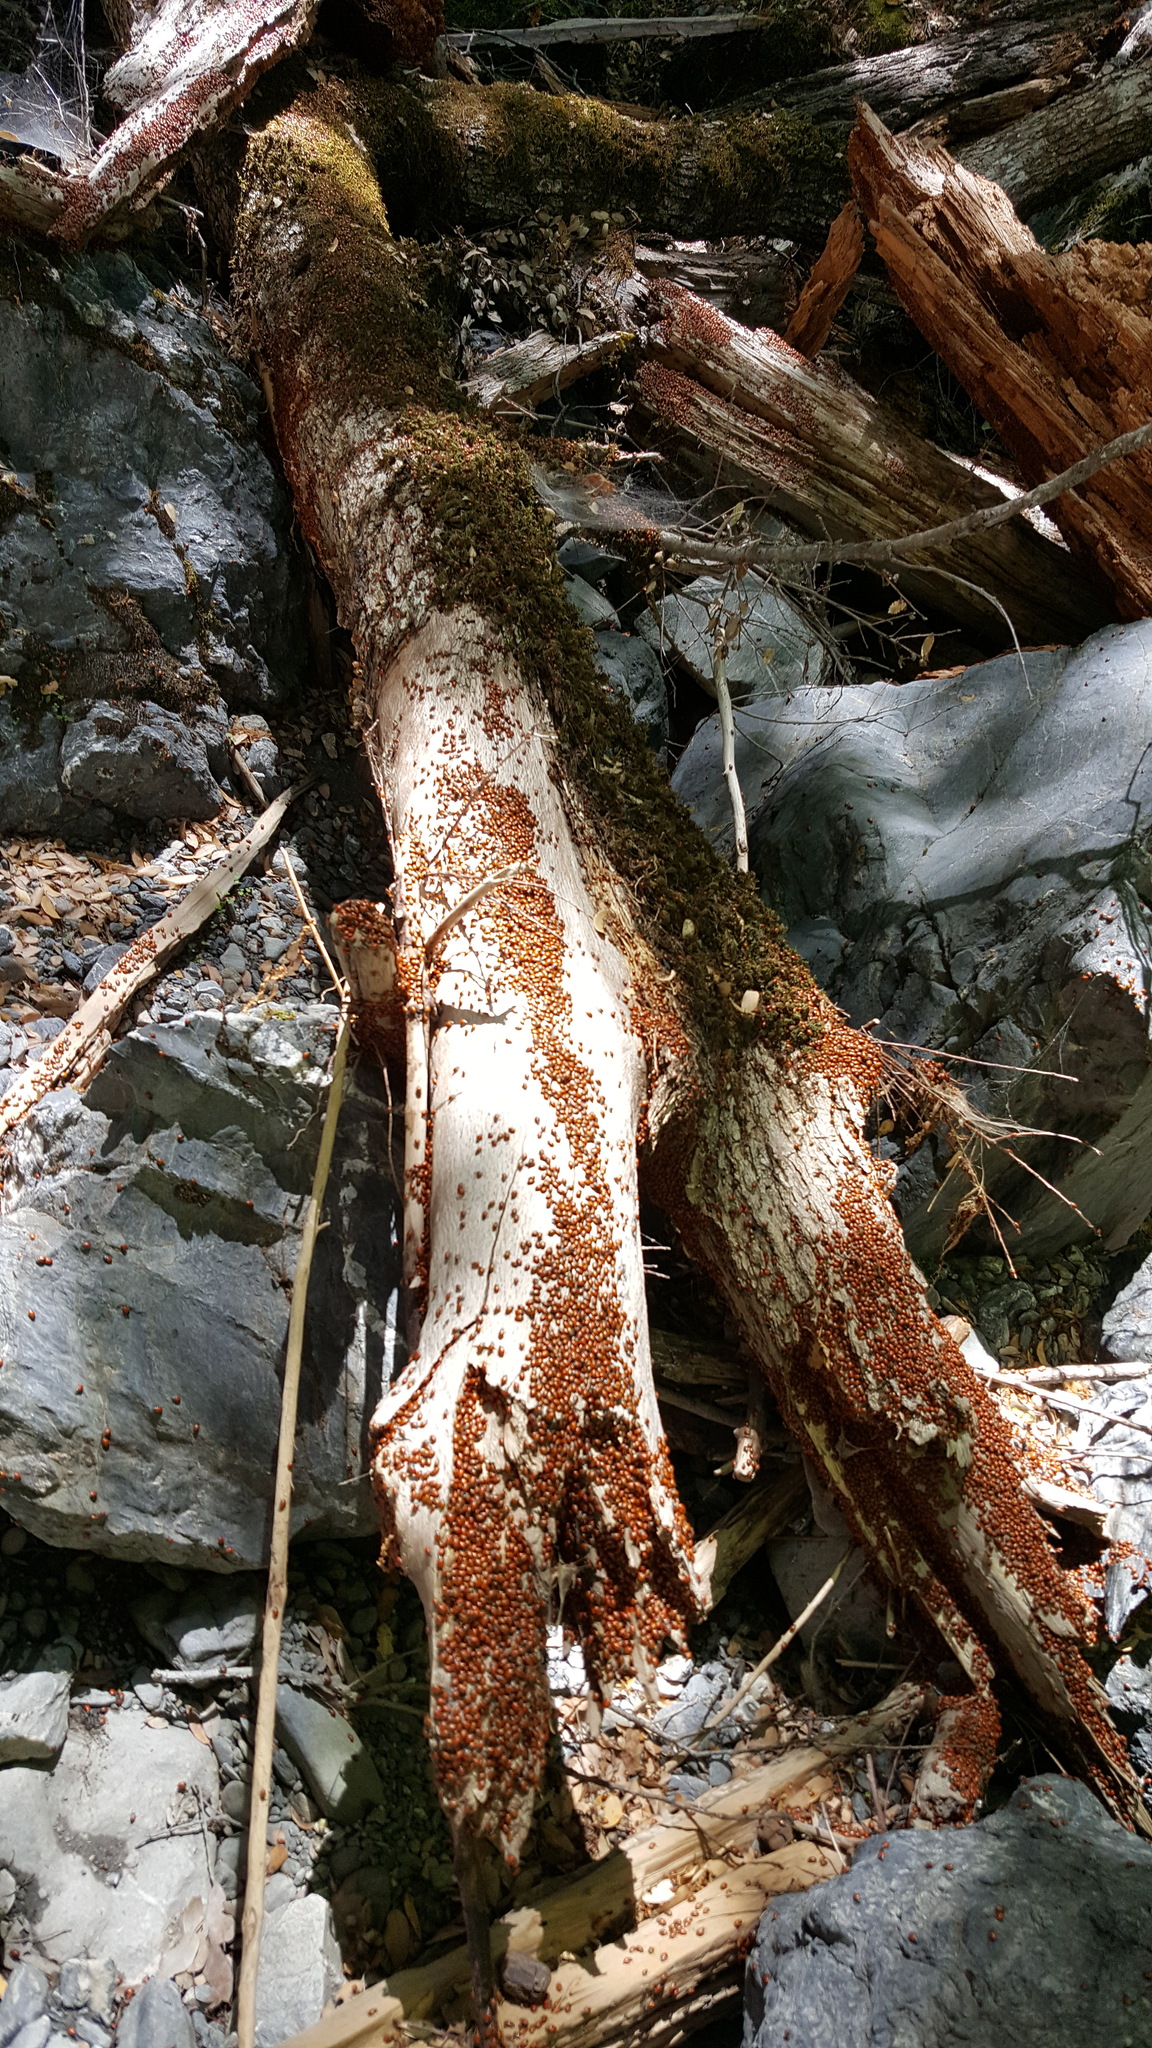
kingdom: Animalia
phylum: Arthropoda
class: Insecta
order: Coleoptera
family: Coccinellidae
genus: Hippodamia
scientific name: Hippodamia convergens
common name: Convergent lady beetle
